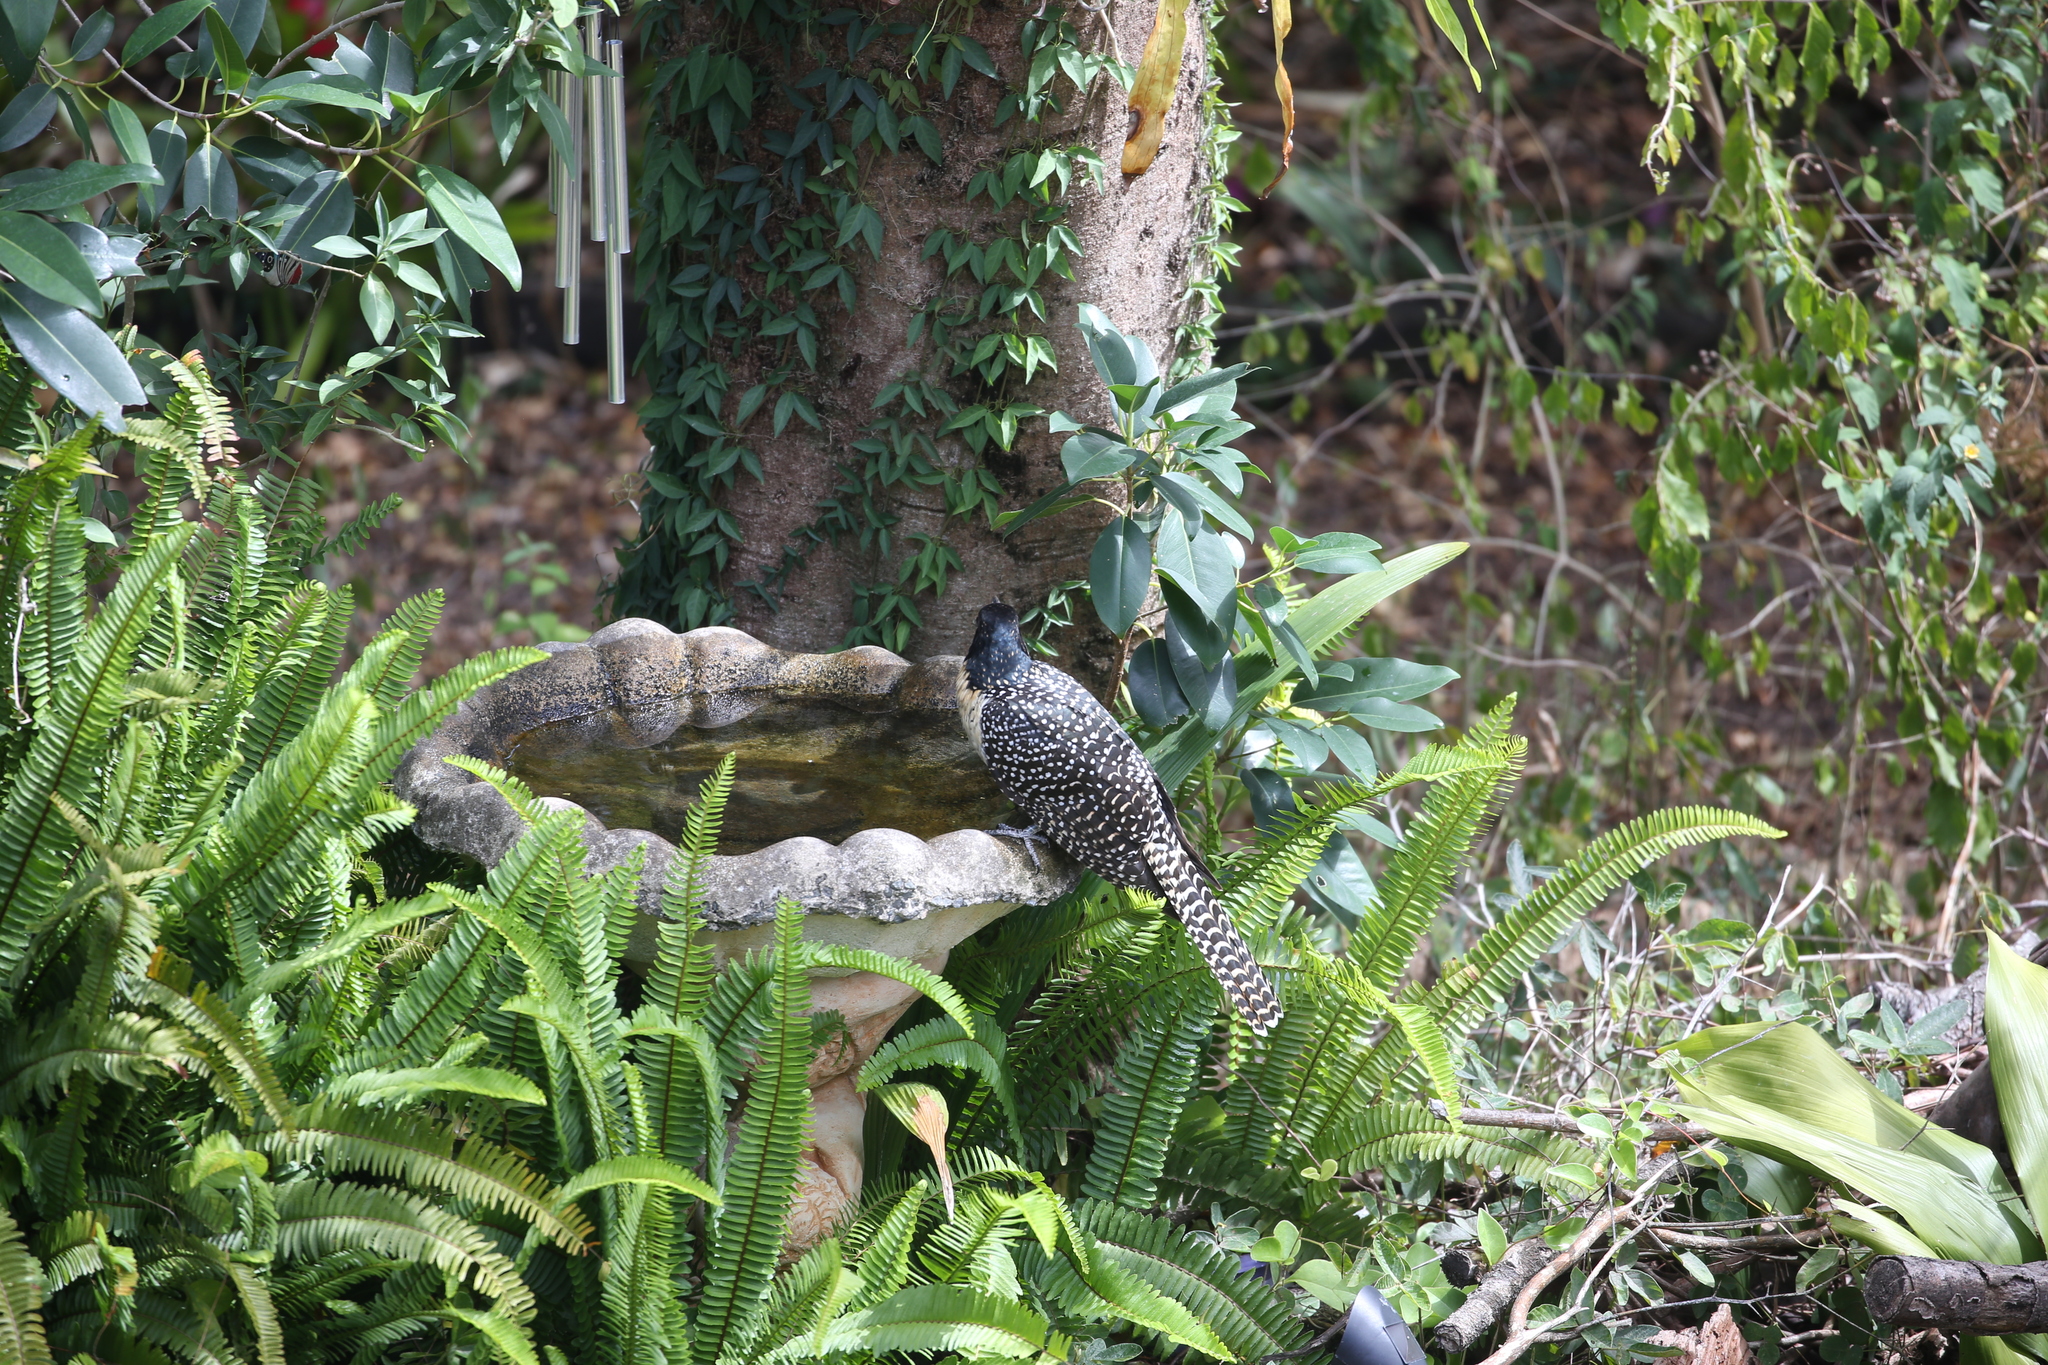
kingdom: Animalia
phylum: Chordata
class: Aves
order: Cuculiformes
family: Cuculidae
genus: Eudynamys
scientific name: Eudynamys orientalis
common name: Pacific koel
